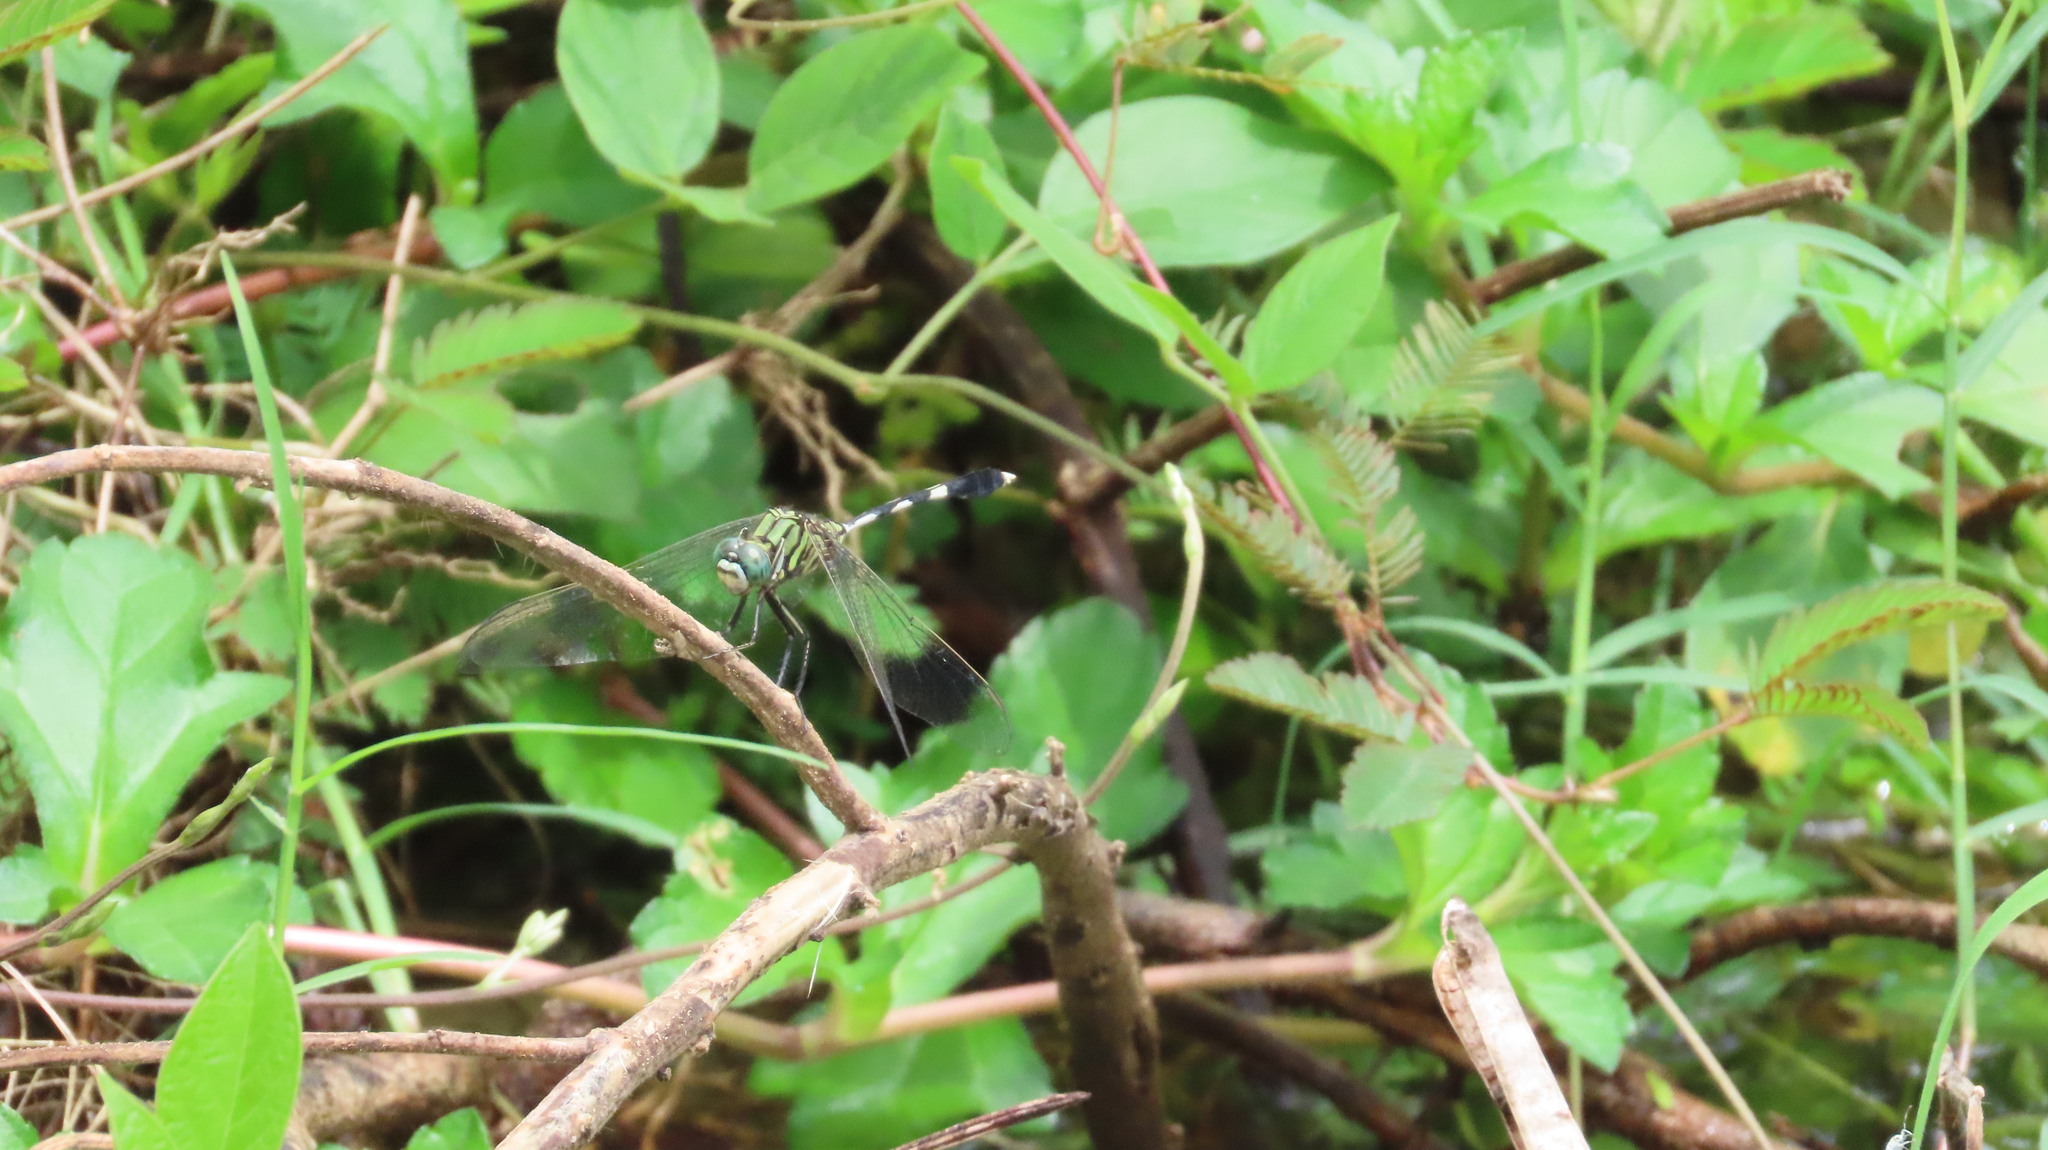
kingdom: Animalia
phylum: Arthropoda
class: Insecta
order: Odonata
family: Libellulidae
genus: Orthetrum
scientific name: Orthetrum sabina
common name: Slender skimmer
